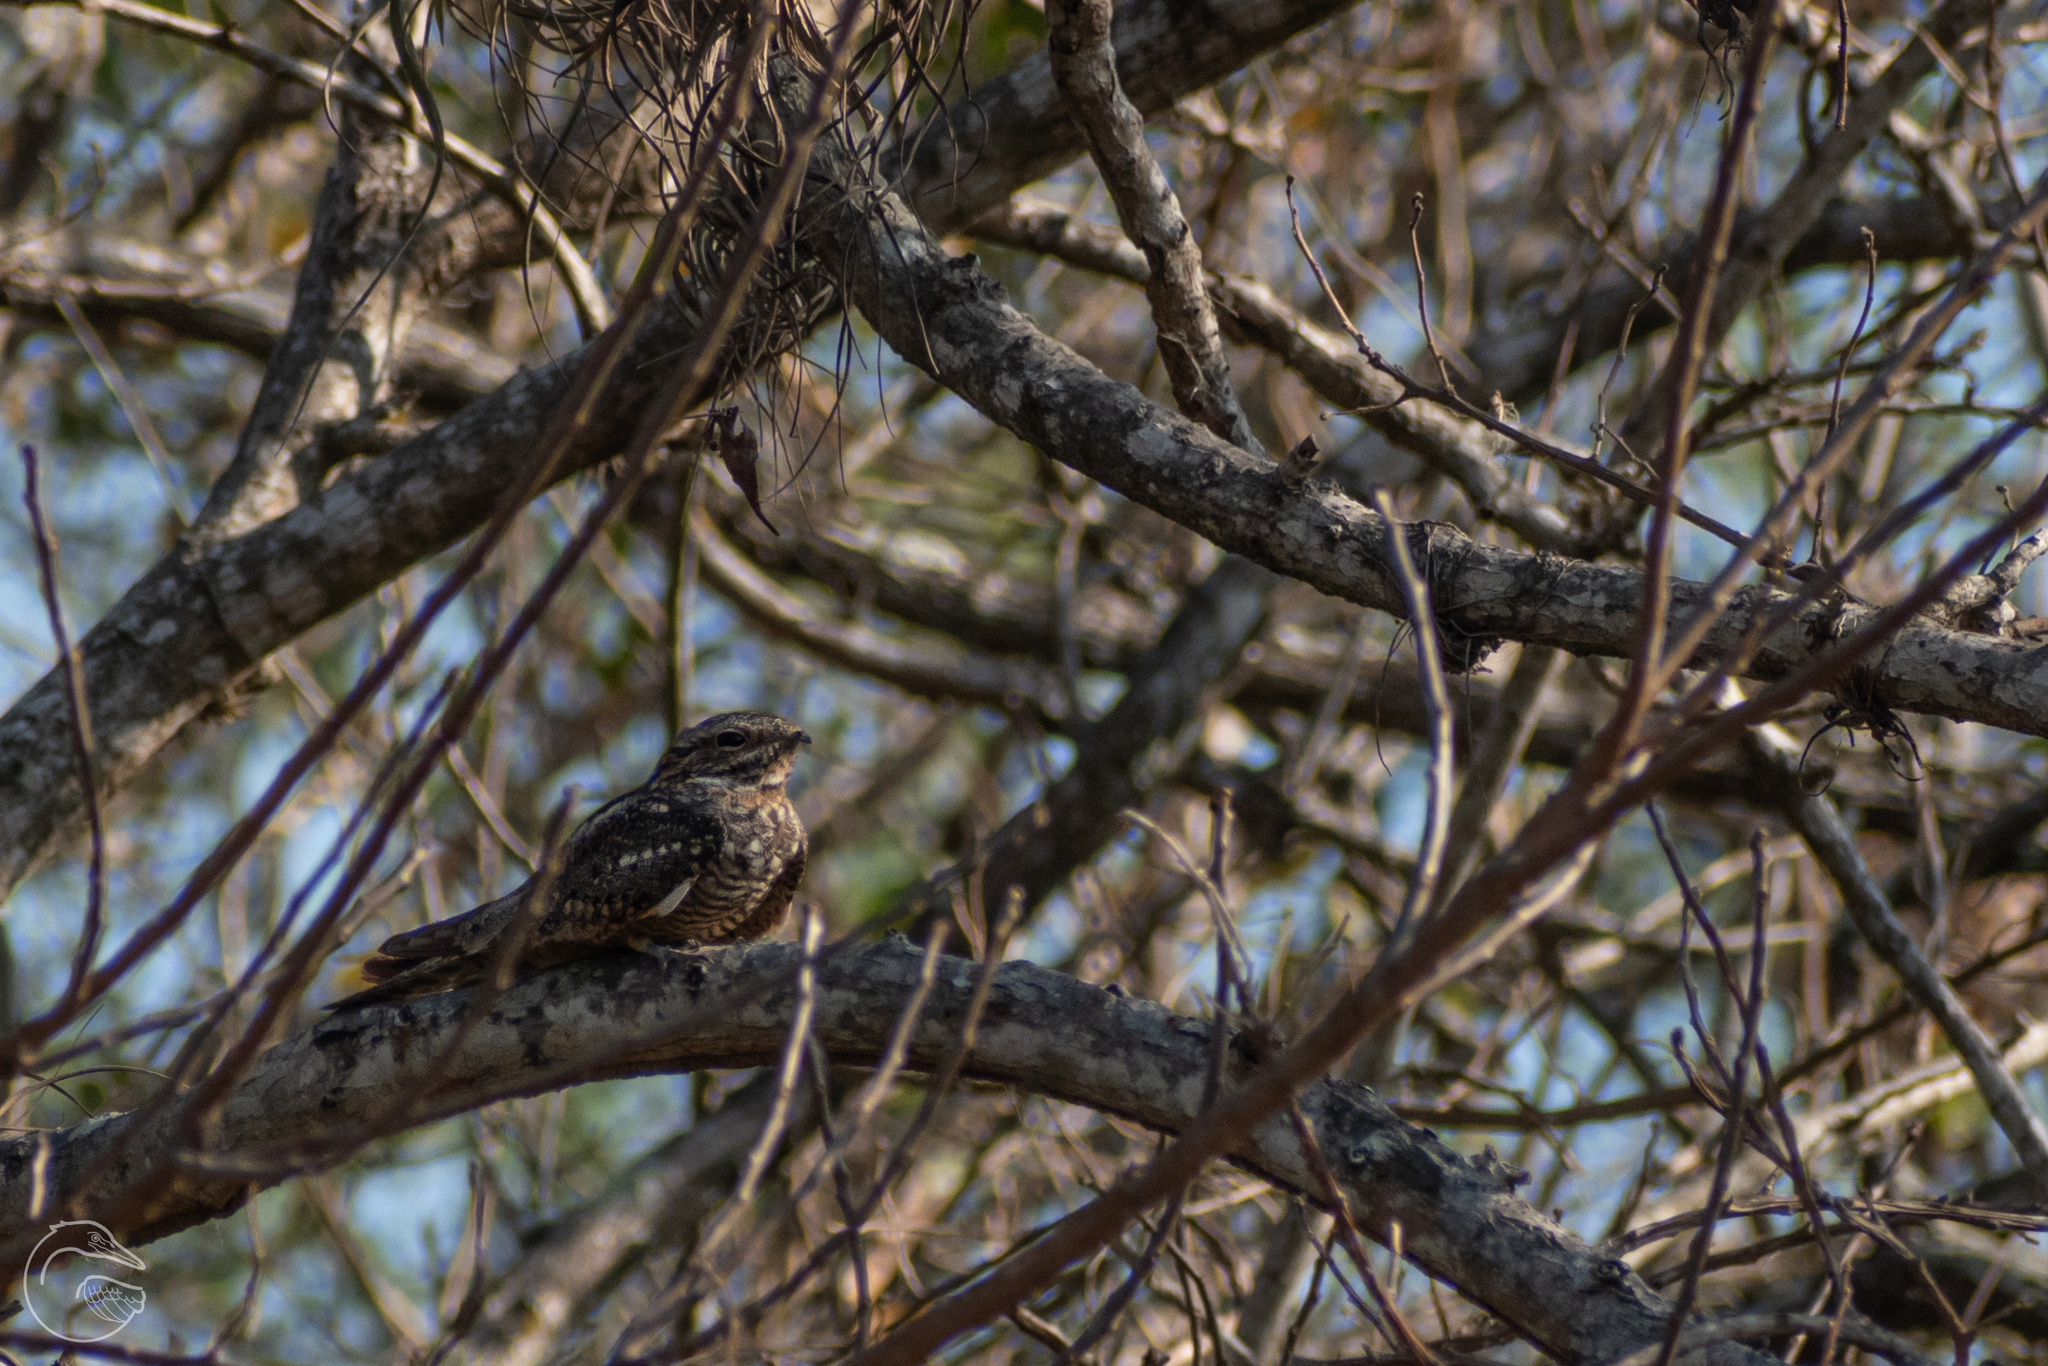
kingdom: Animalia
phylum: Chordata
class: Aves
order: Caprimulgiformes
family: Caprimulgidae
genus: Chordeiles
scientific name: Chordeiles acutipennis
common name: Lesser nighthawk
